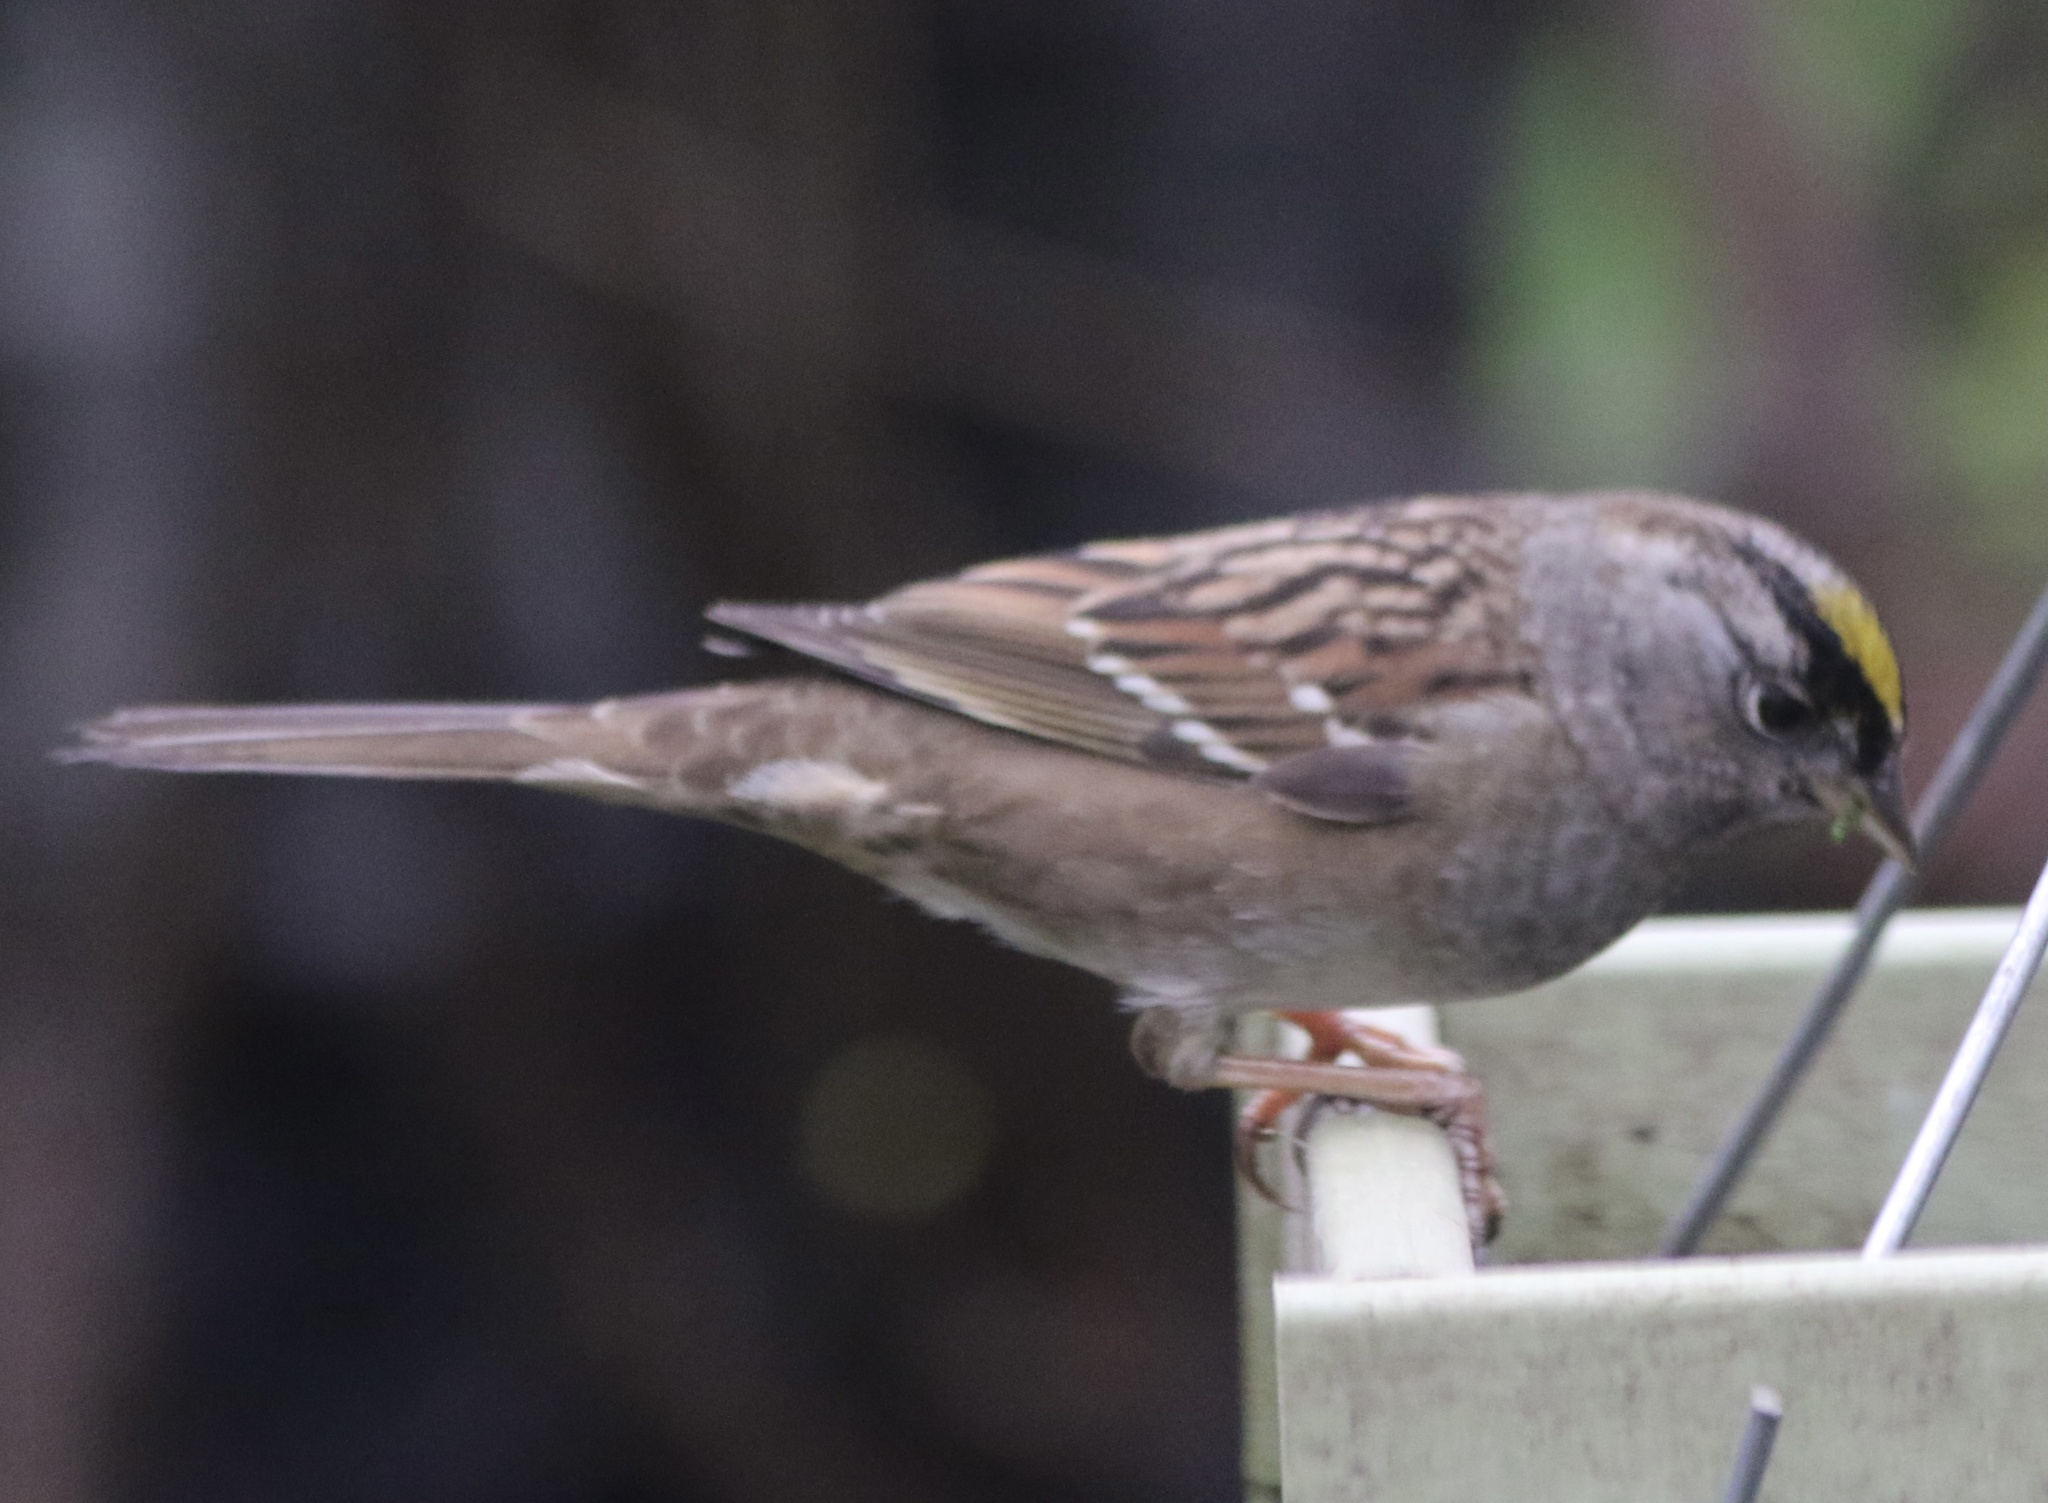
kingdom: Animalia
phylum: Chordata
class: Aves
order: Passeriformes
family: Passerellidae
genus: Zonotrichia
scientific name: Zonotrichia atricapilla
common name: Golden-crowned sparrow
